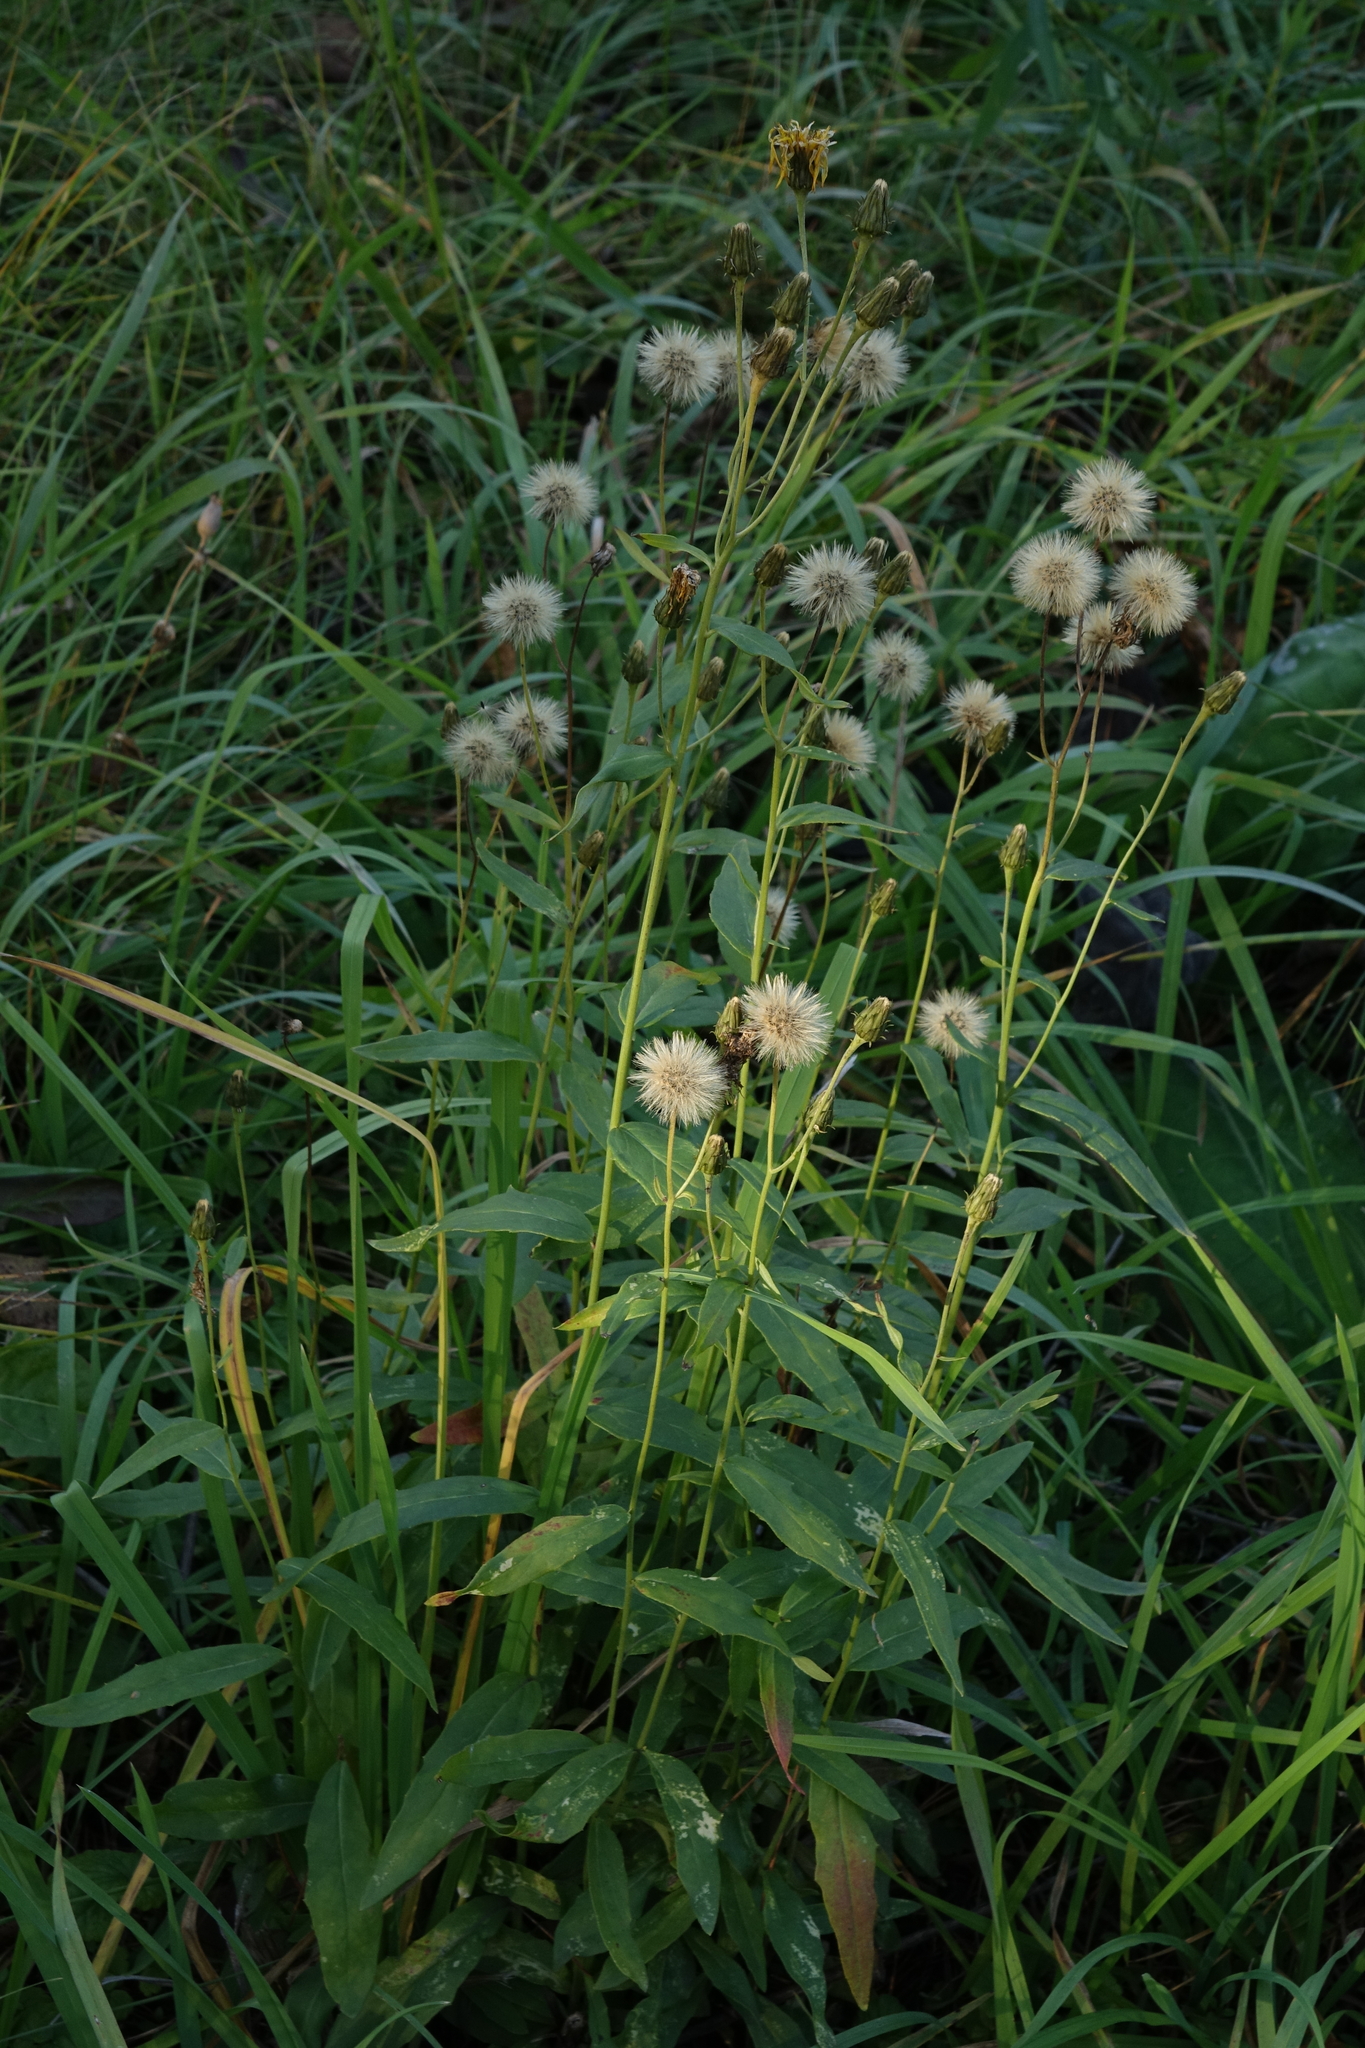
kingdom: Plantae
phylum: Tracheophyta
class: Magnoliopsida
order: Asterales
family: Asteraceae
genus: Hieracium
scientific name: Hieracium umbellatum
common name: Northern hawkweed
